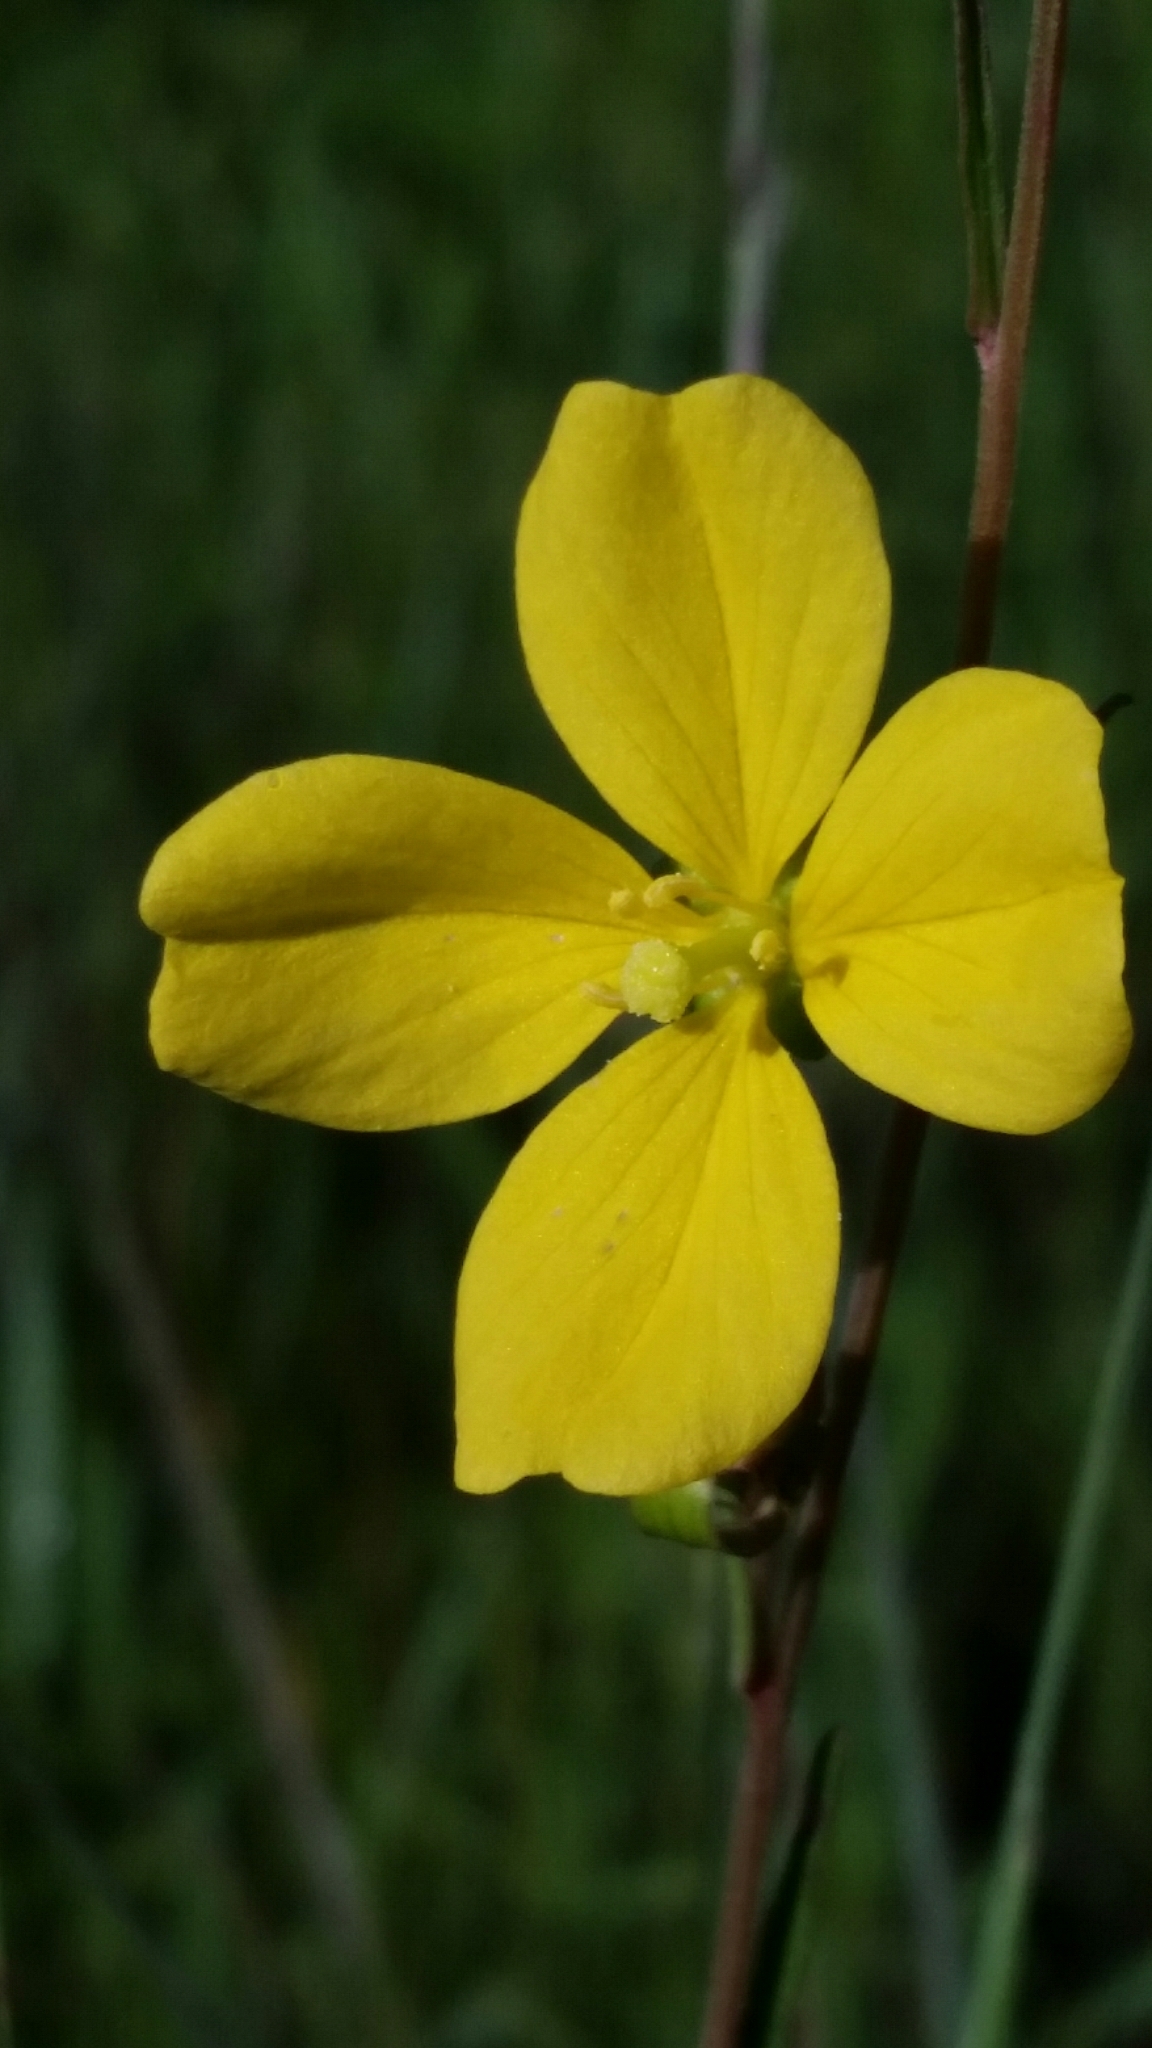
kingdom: Plantae
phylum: Tracheophyta
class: Magnoliopsida
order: Myrtales
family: Onagraceae
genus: Ludwigia
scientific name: Ludwigia maritima
